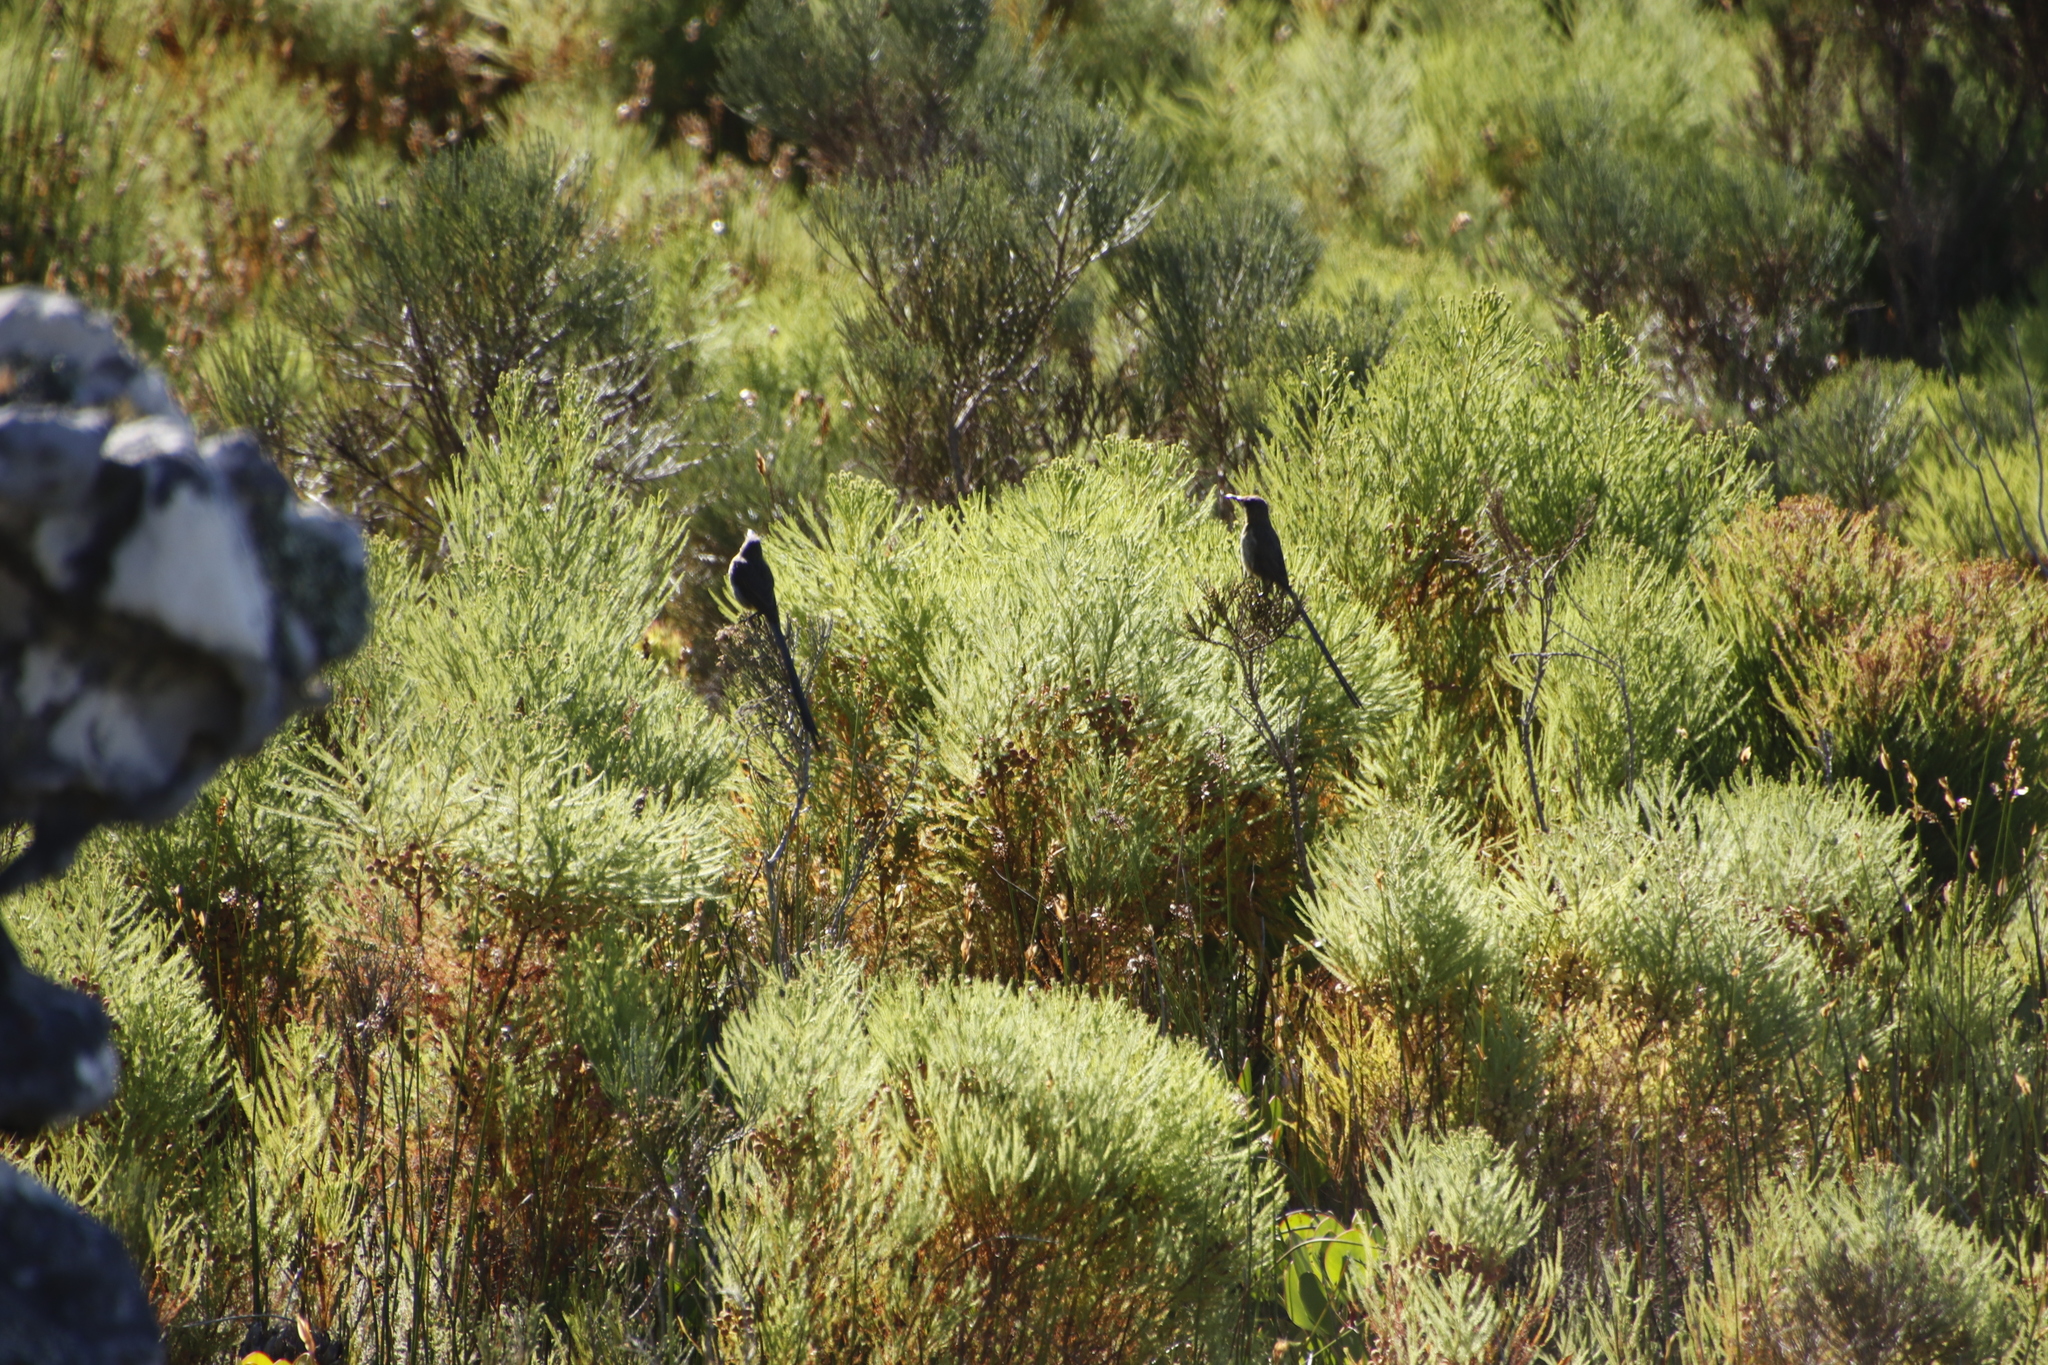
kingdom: Animalia
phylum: Chordata
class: Aves
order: Passeriformes
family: Promeropidae
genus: Promerops
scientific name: Promerops cafer
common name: Cape sugarbird
